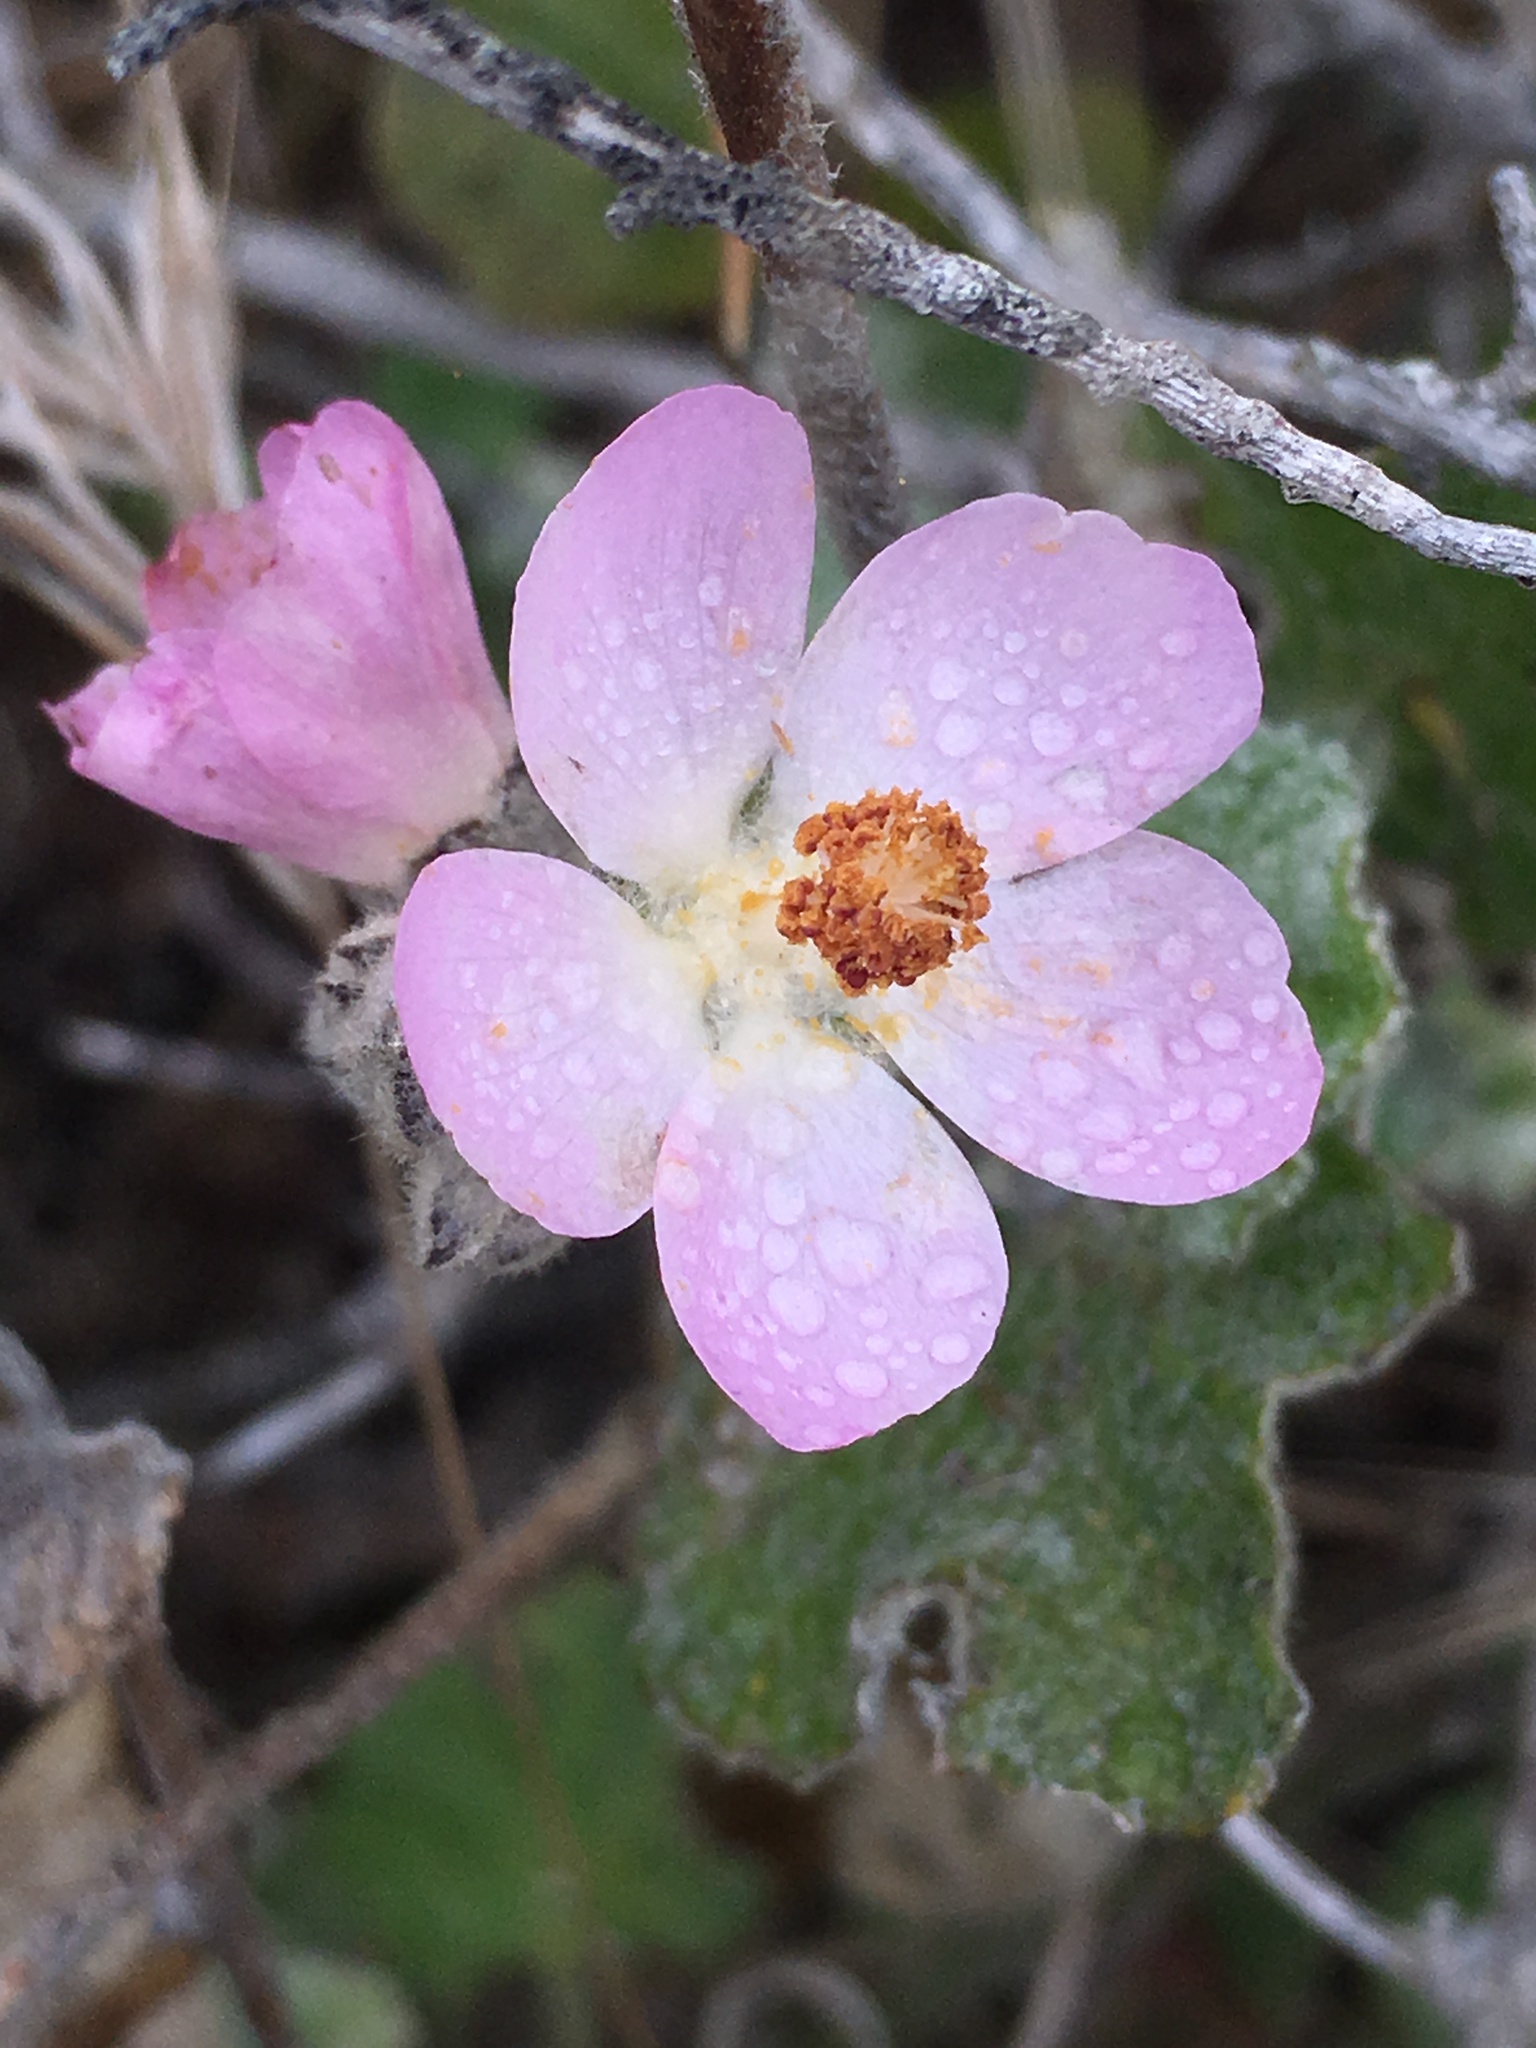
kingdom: Plantae
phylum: Tracheophyta
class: Magnoliopsida
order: Malvales
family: Malvaceae
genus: Malacothamnus
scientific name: Malacothamnus clementinus
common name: San clemente island bush-mallow
